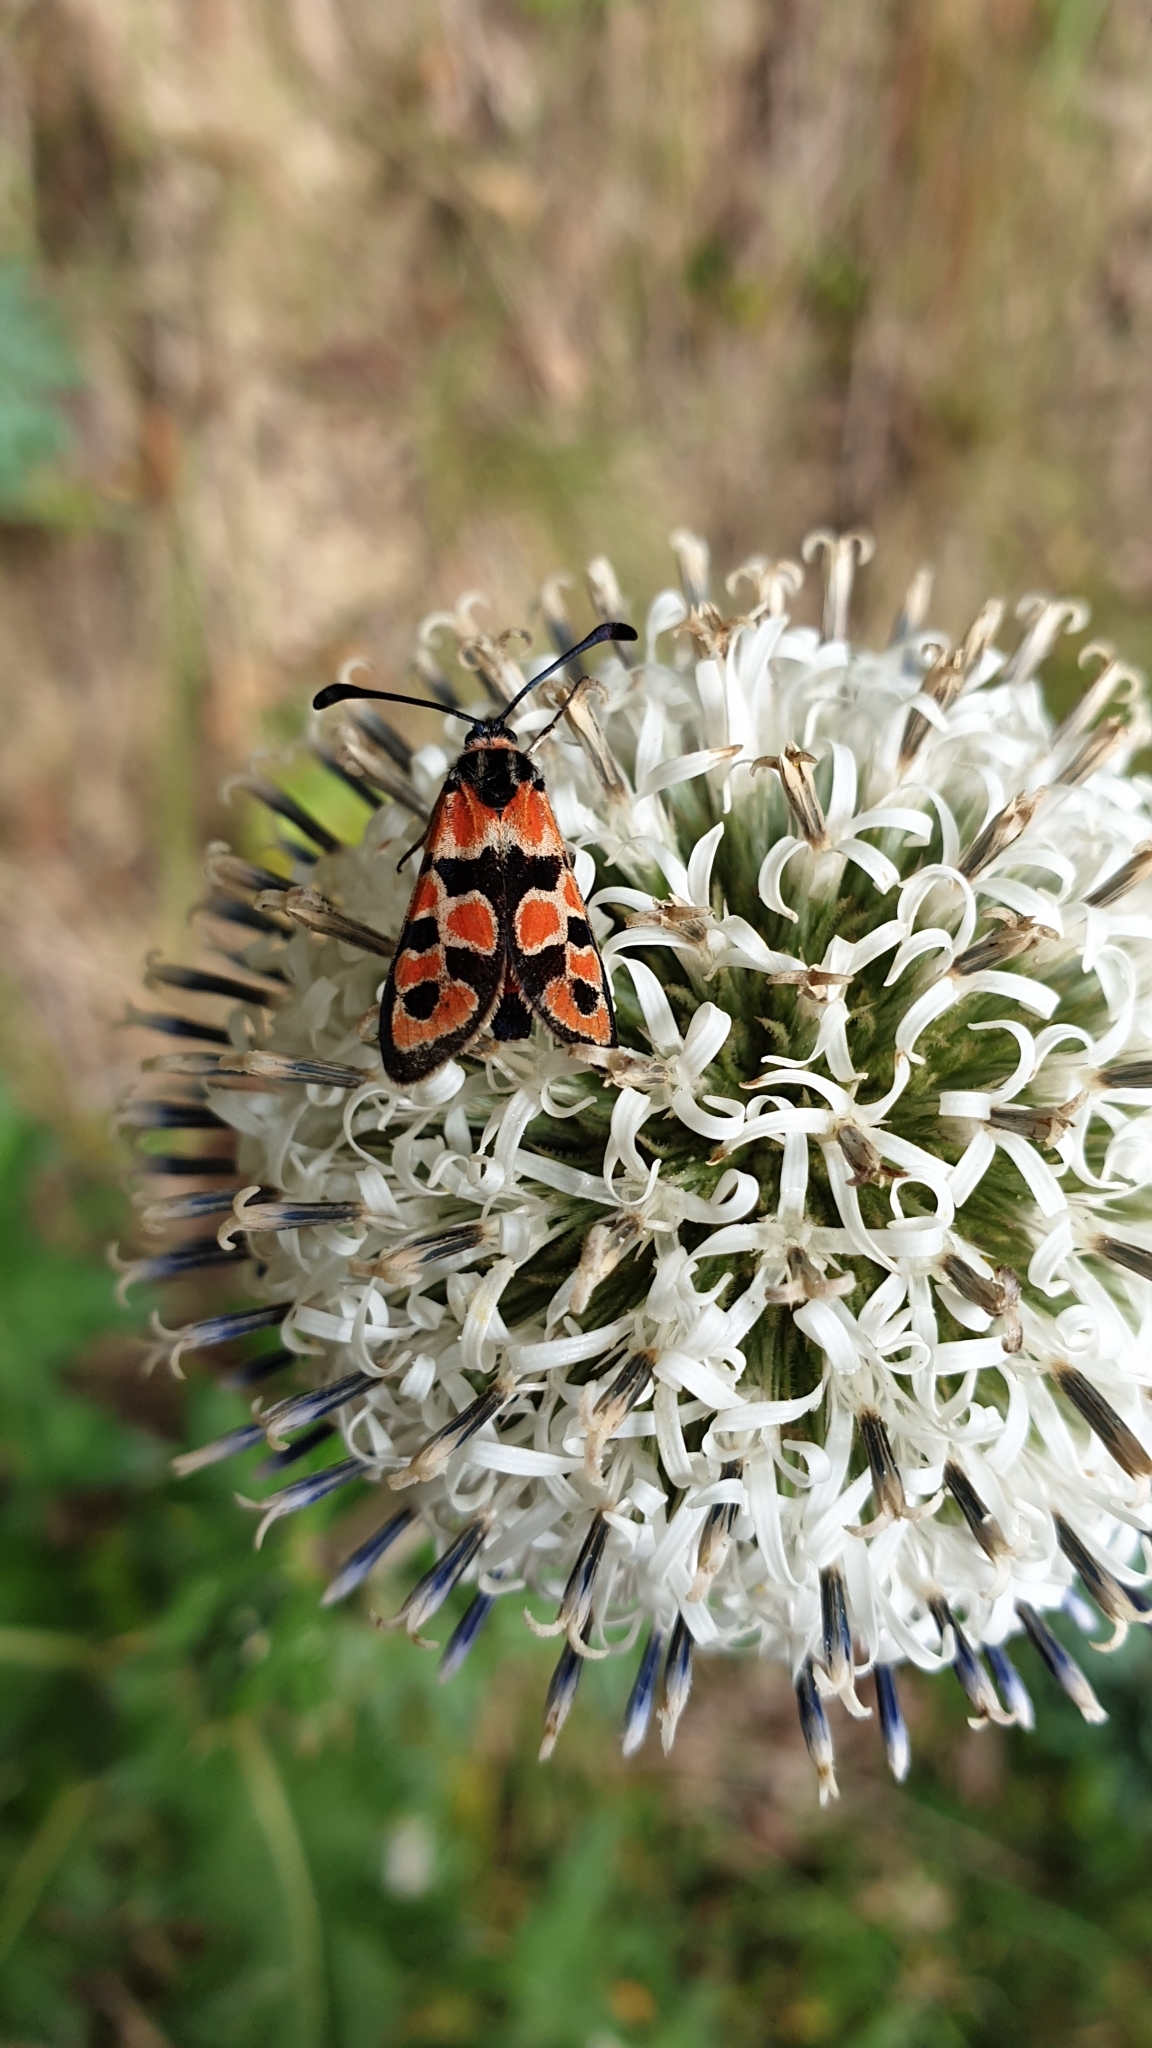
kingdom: Animalia
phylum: Arthropoda
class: Insecta
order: Lepidoptera
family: Zygaenidae
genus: Zygaena
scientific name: Zygaena fausta
